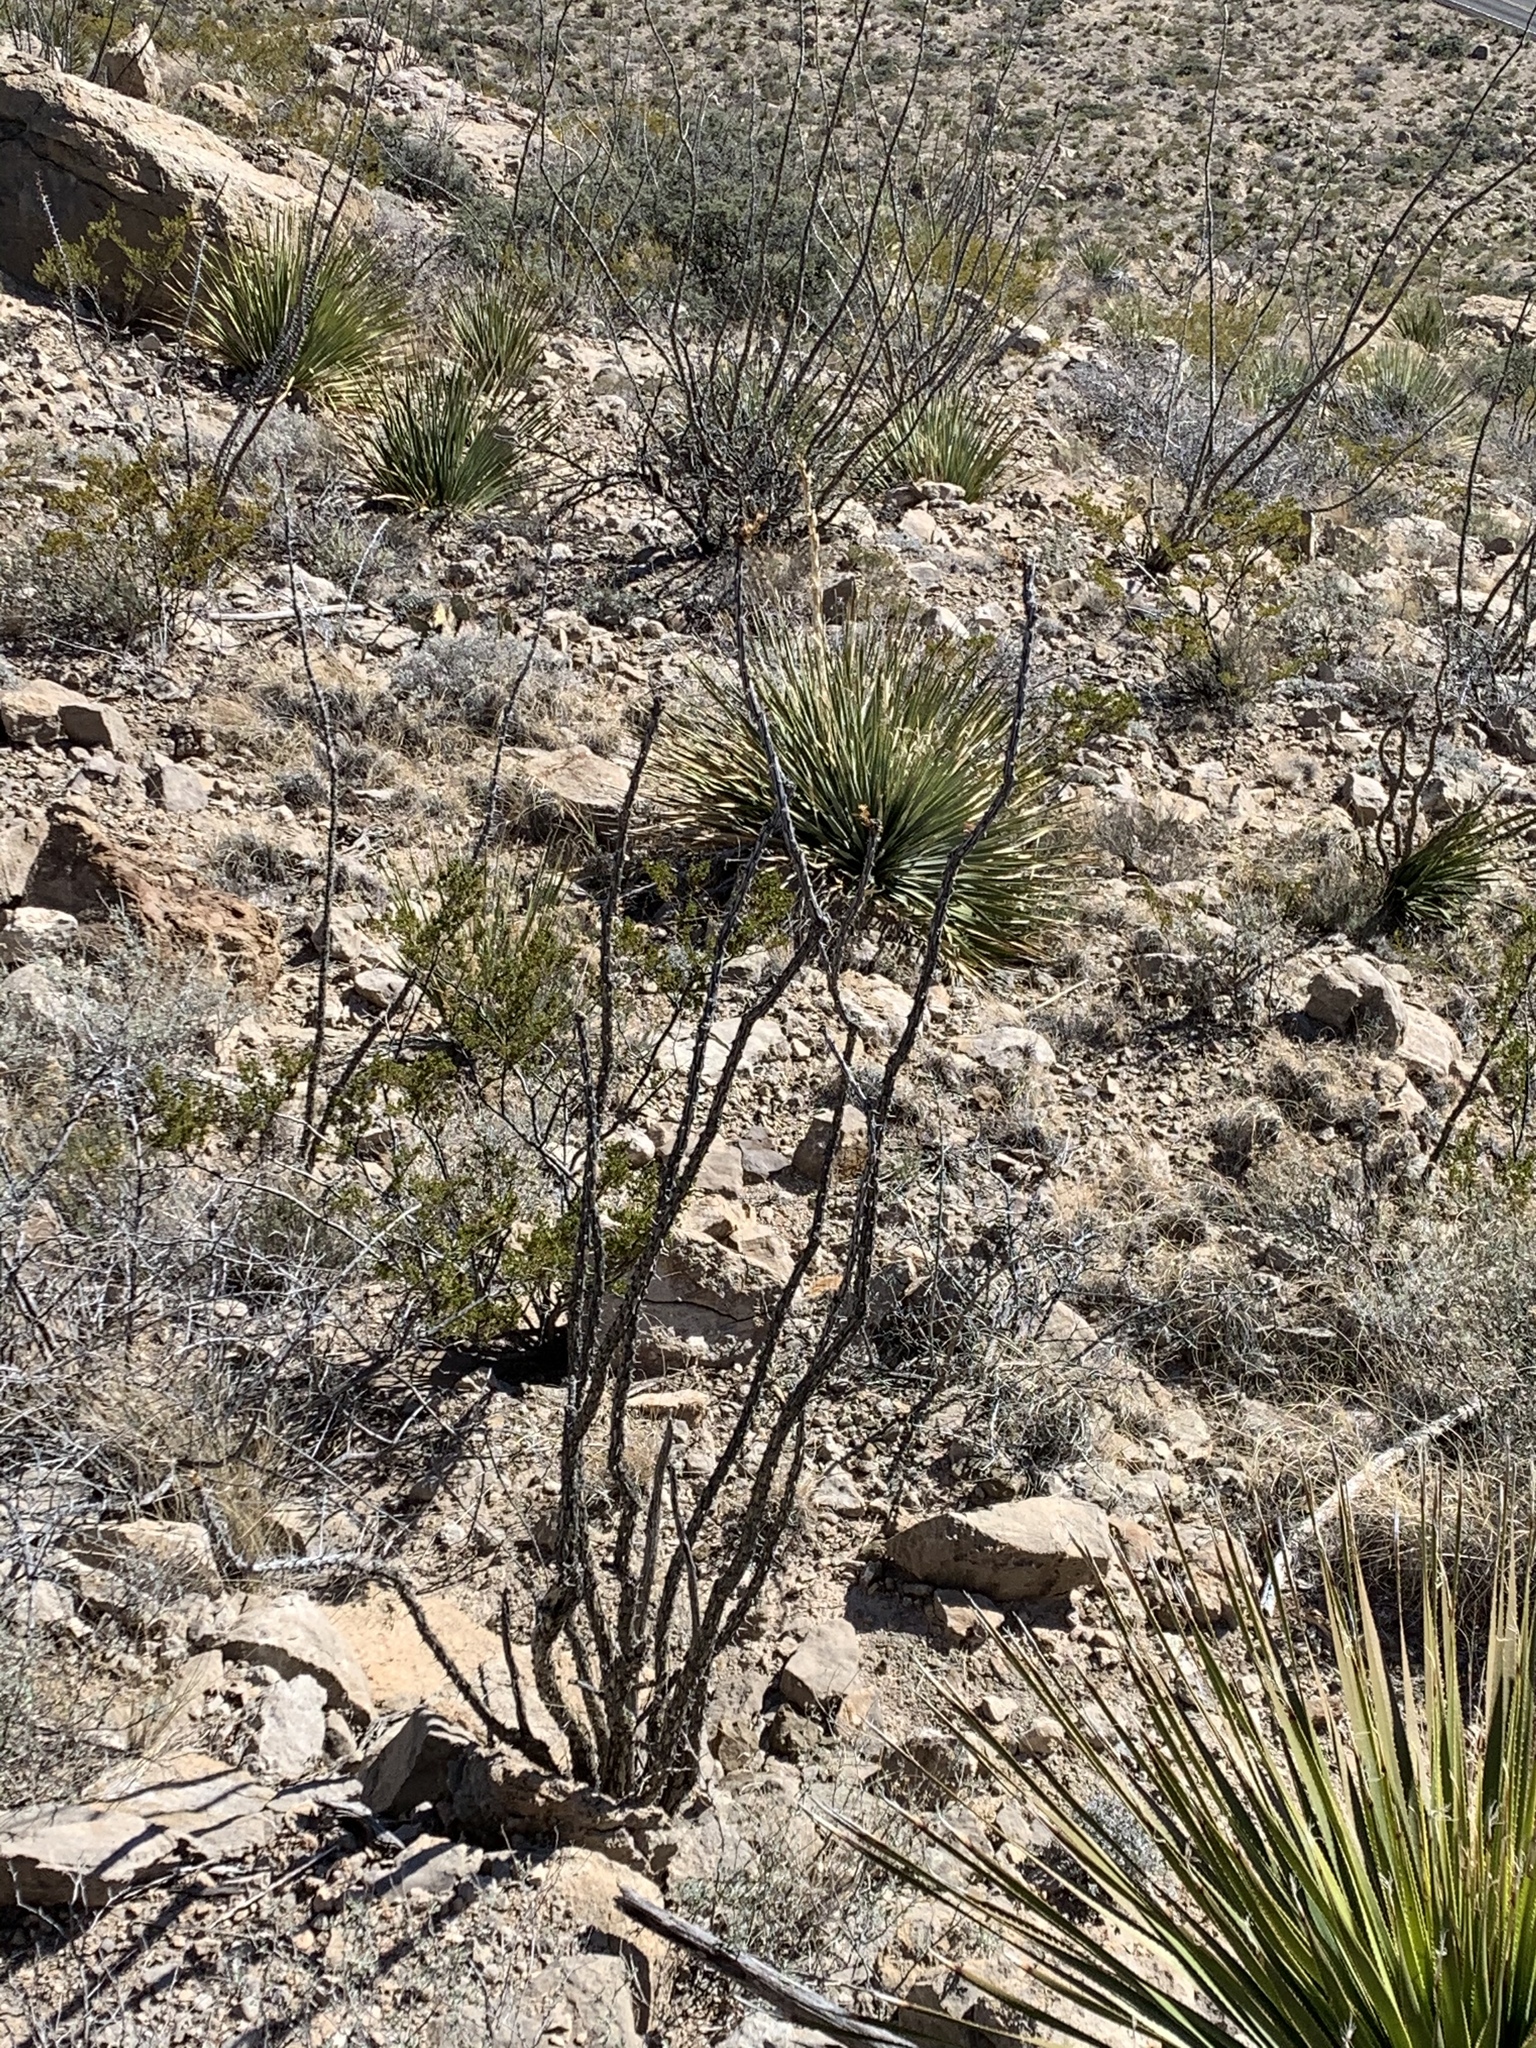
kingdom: Plantae
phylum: Tracheophyta
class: Magnoliopsida
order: Ericales
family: Fouquieriaceae
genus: Fouquieria
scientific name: Fouquieria splendens
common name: Vine-cactus
